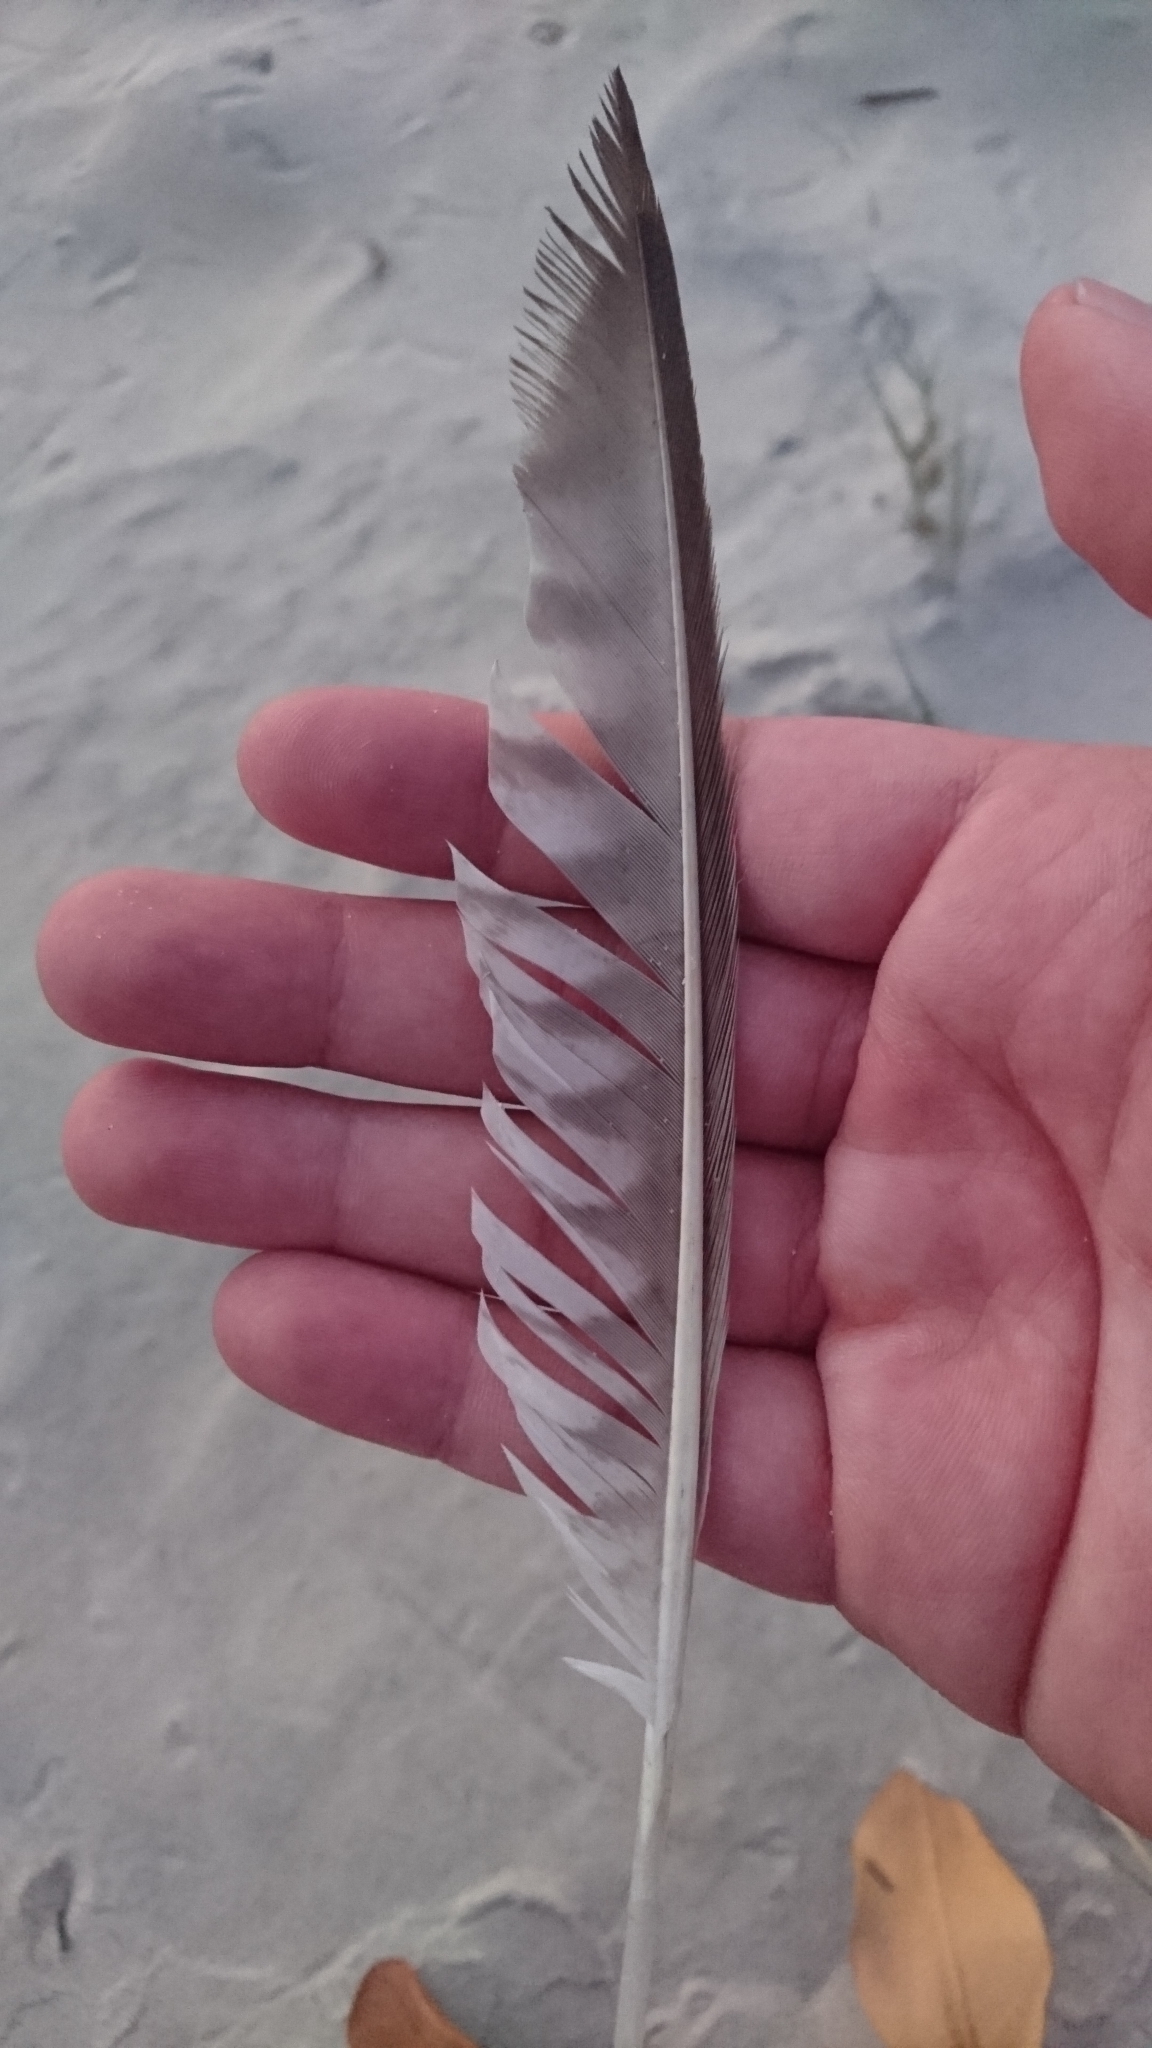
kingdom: Animalia
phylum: Chordata
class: Aves
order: Charadriiformes
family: Scolopacidae
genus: Numenius
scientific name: Numenius phaeopus
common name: Whimbrel
